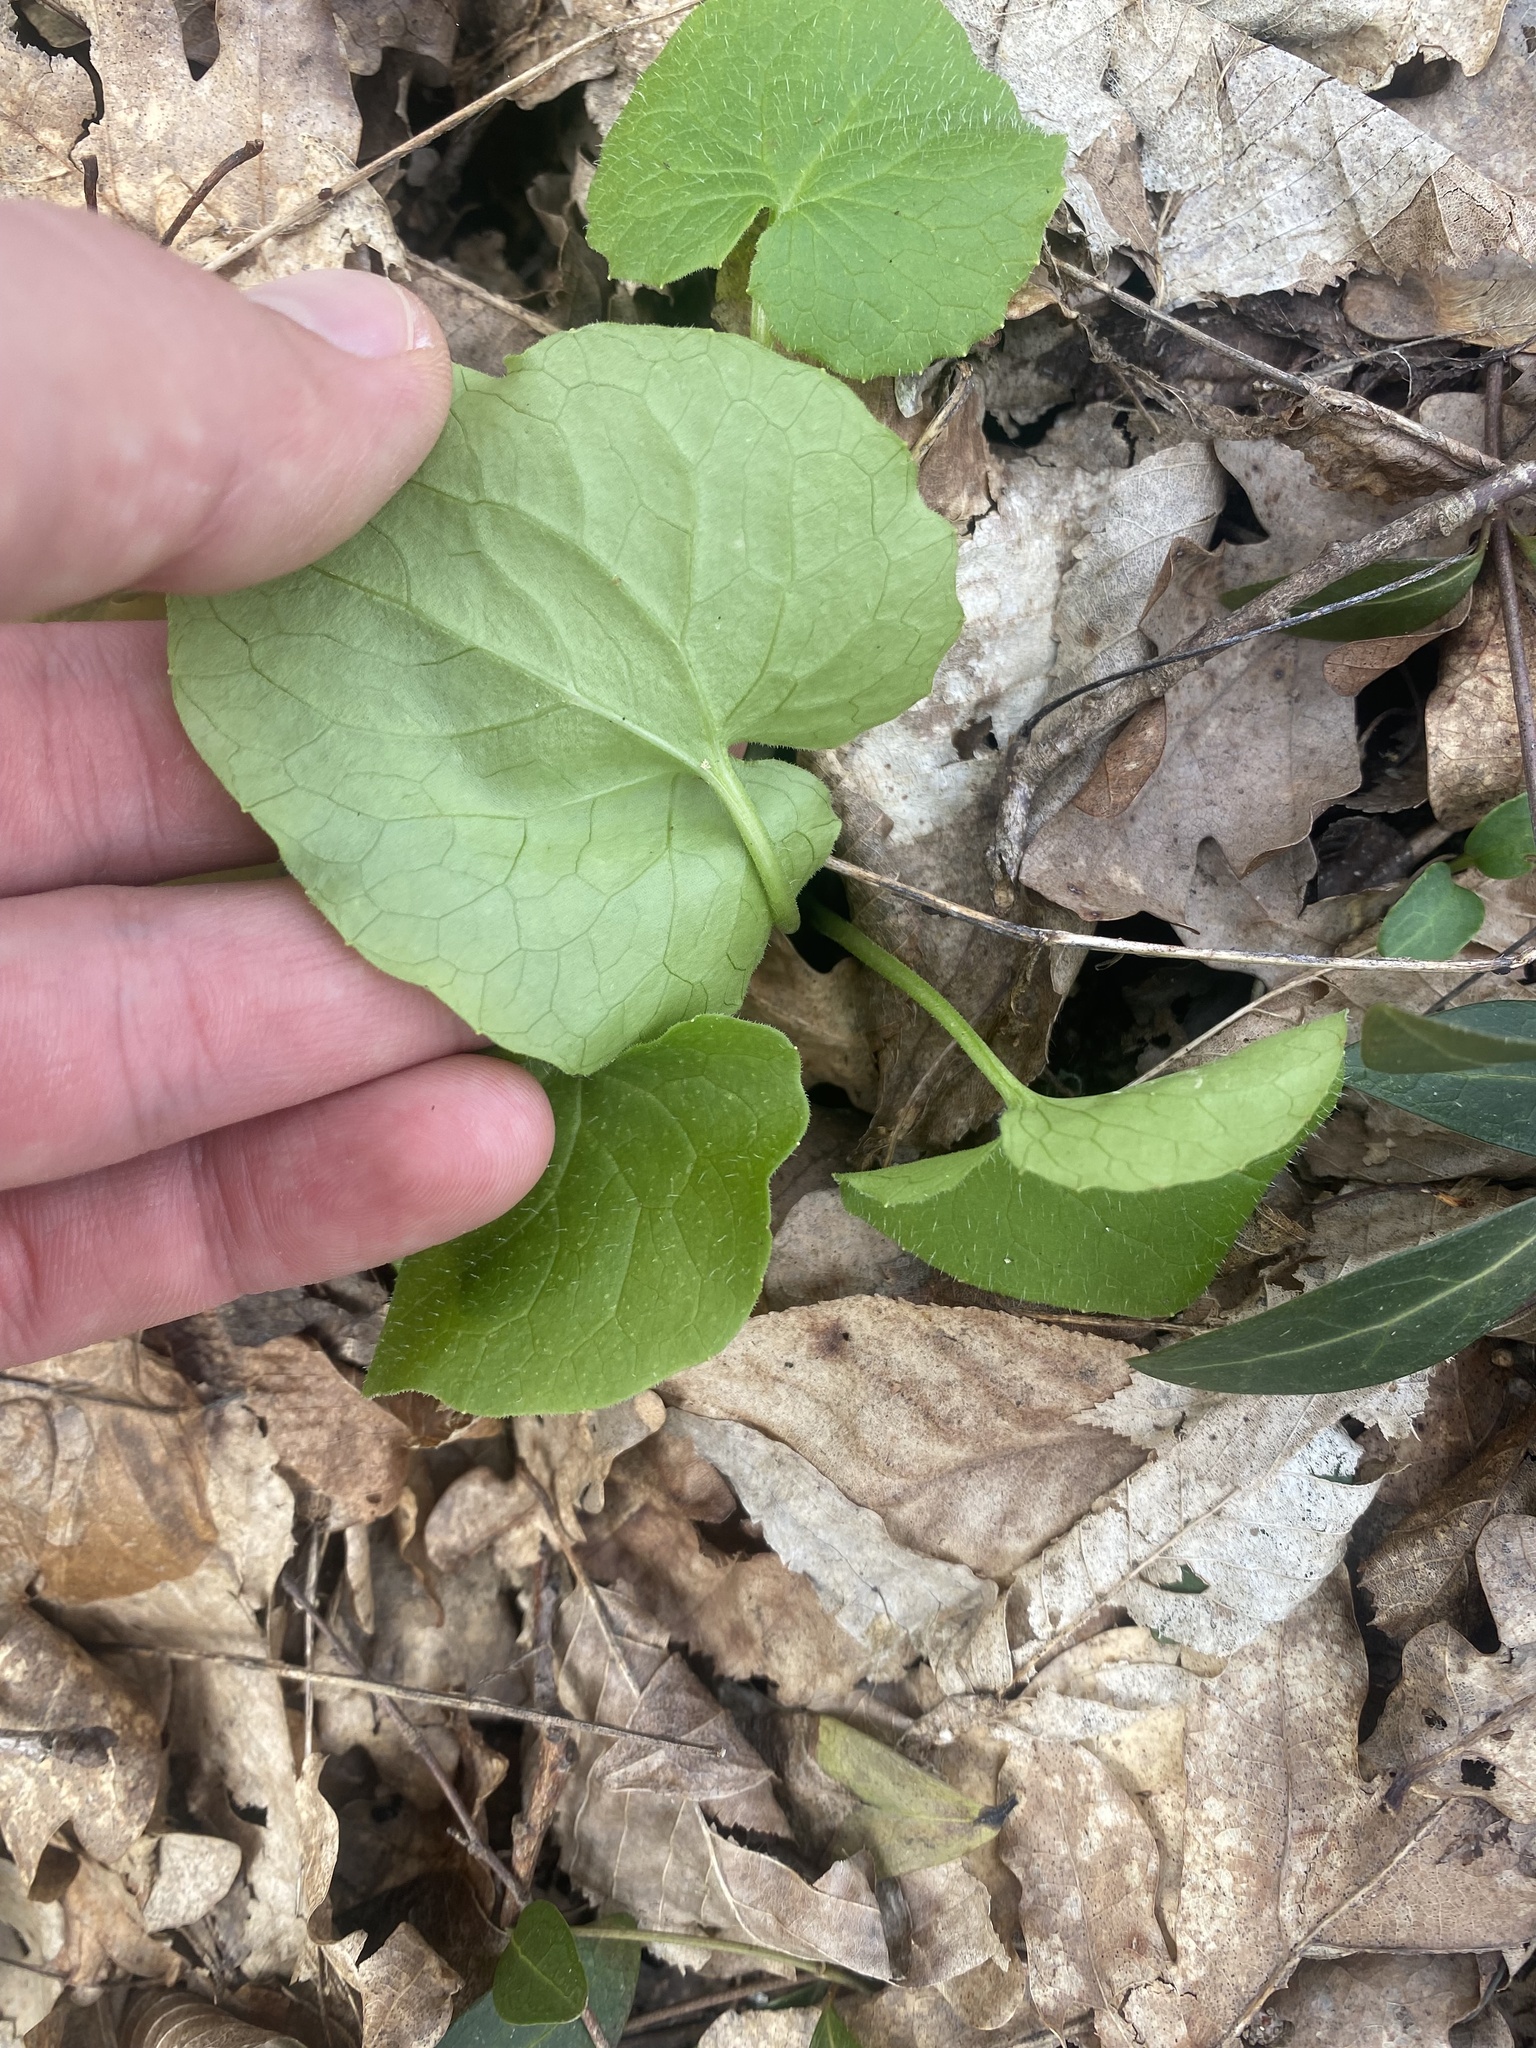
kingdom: Plantae
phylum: Tracheophyta
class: Magnoliopsida
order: Asterales
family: Asteraceae
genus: Doronicum
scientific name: Doronicum
